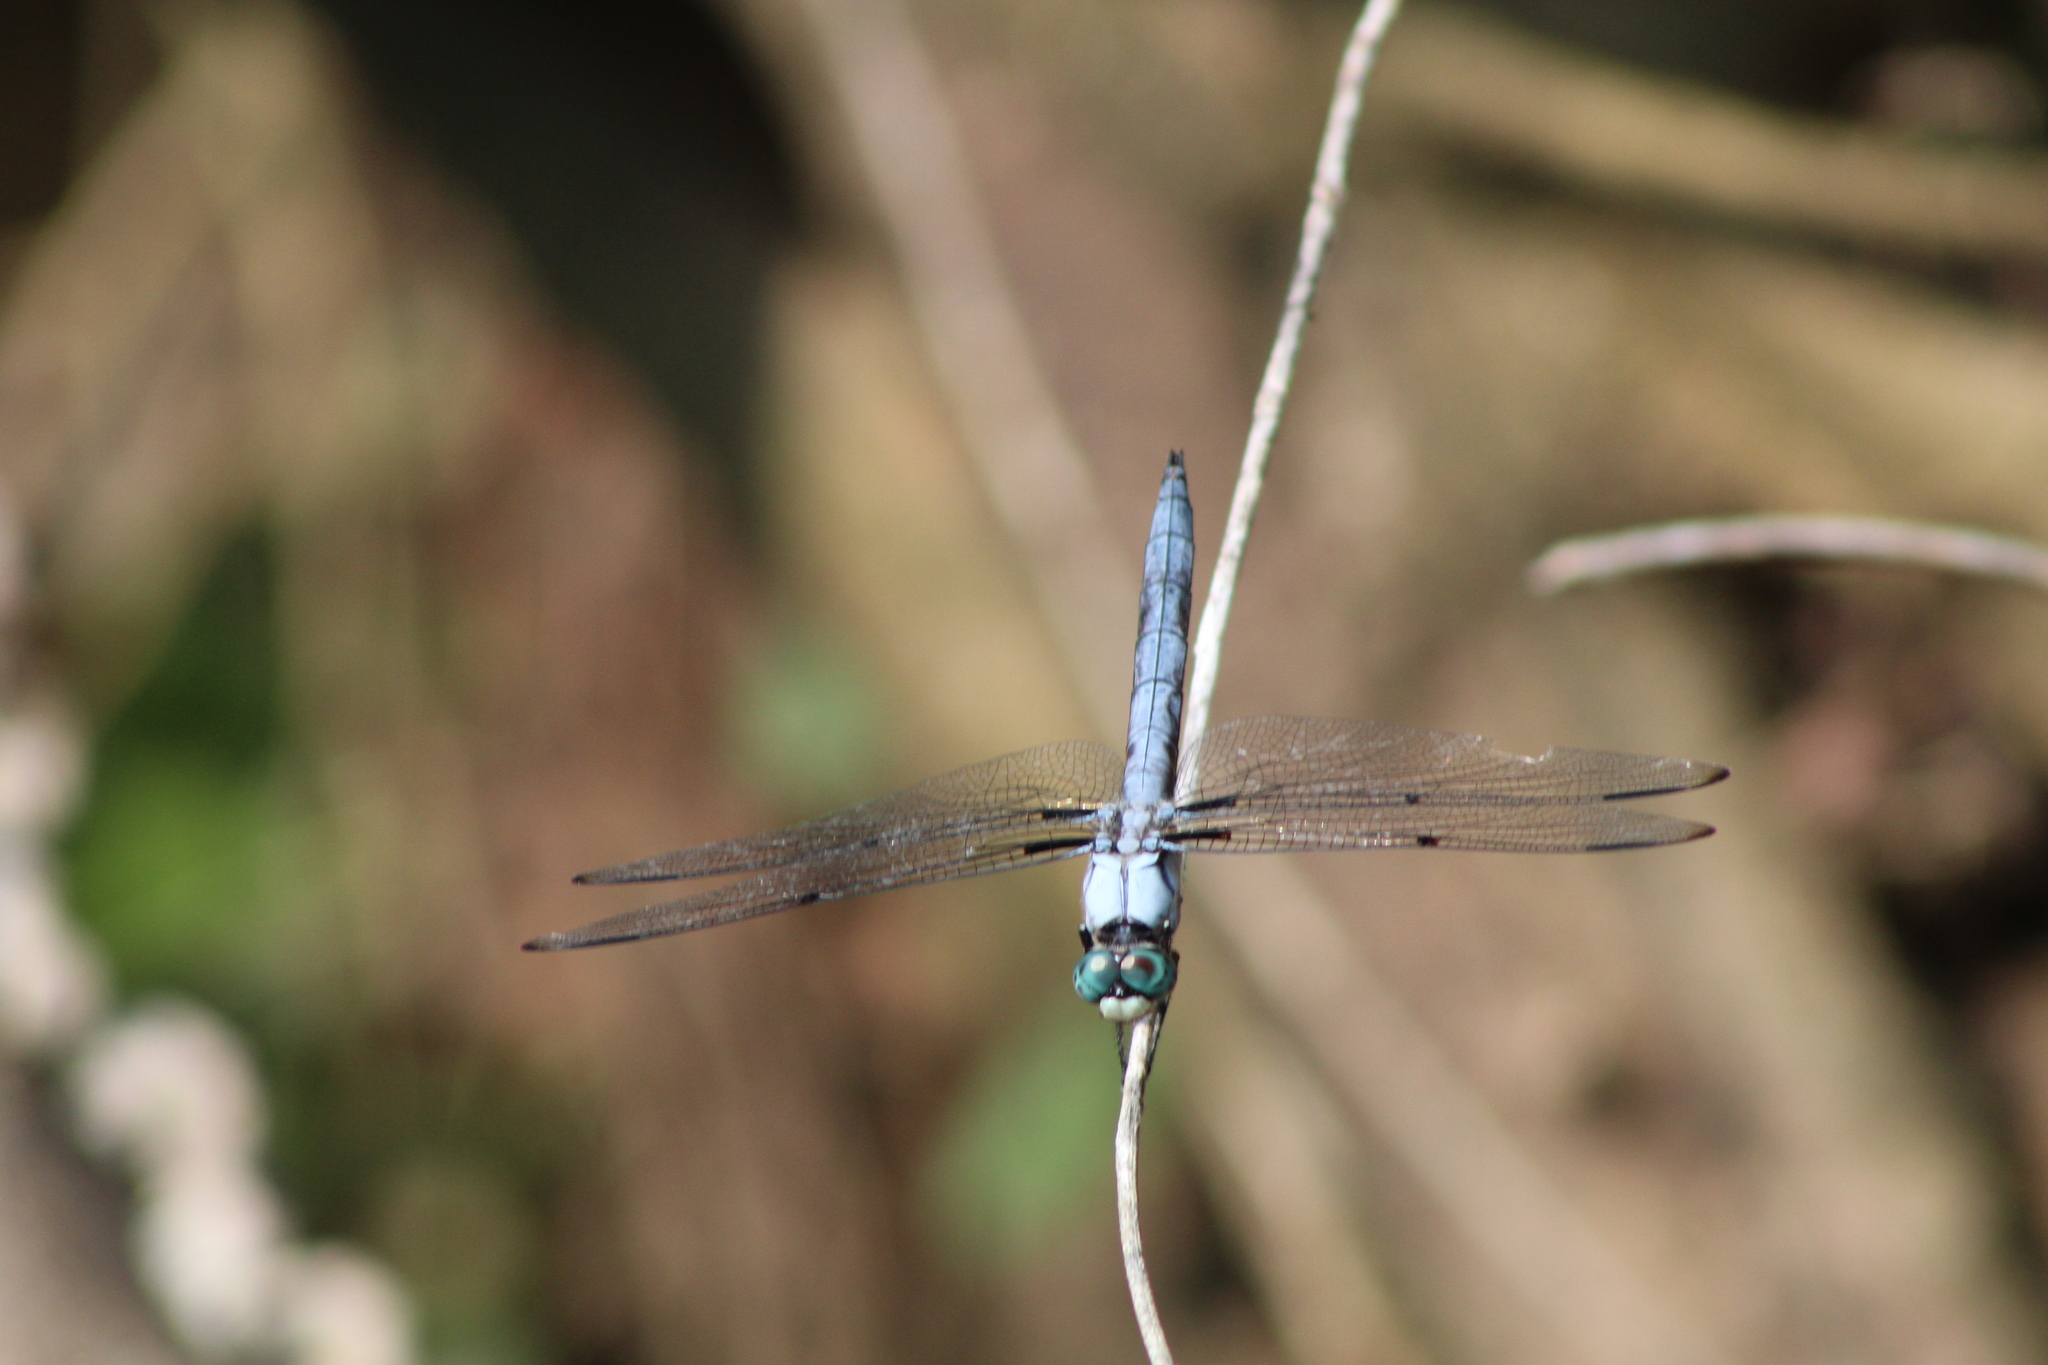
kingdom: Animalia
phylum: Arthropoda
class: Insecta
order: Odonata
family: Libellulidae
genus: Libellula
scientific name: Libellula vibrans
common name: Great blue skimmer
